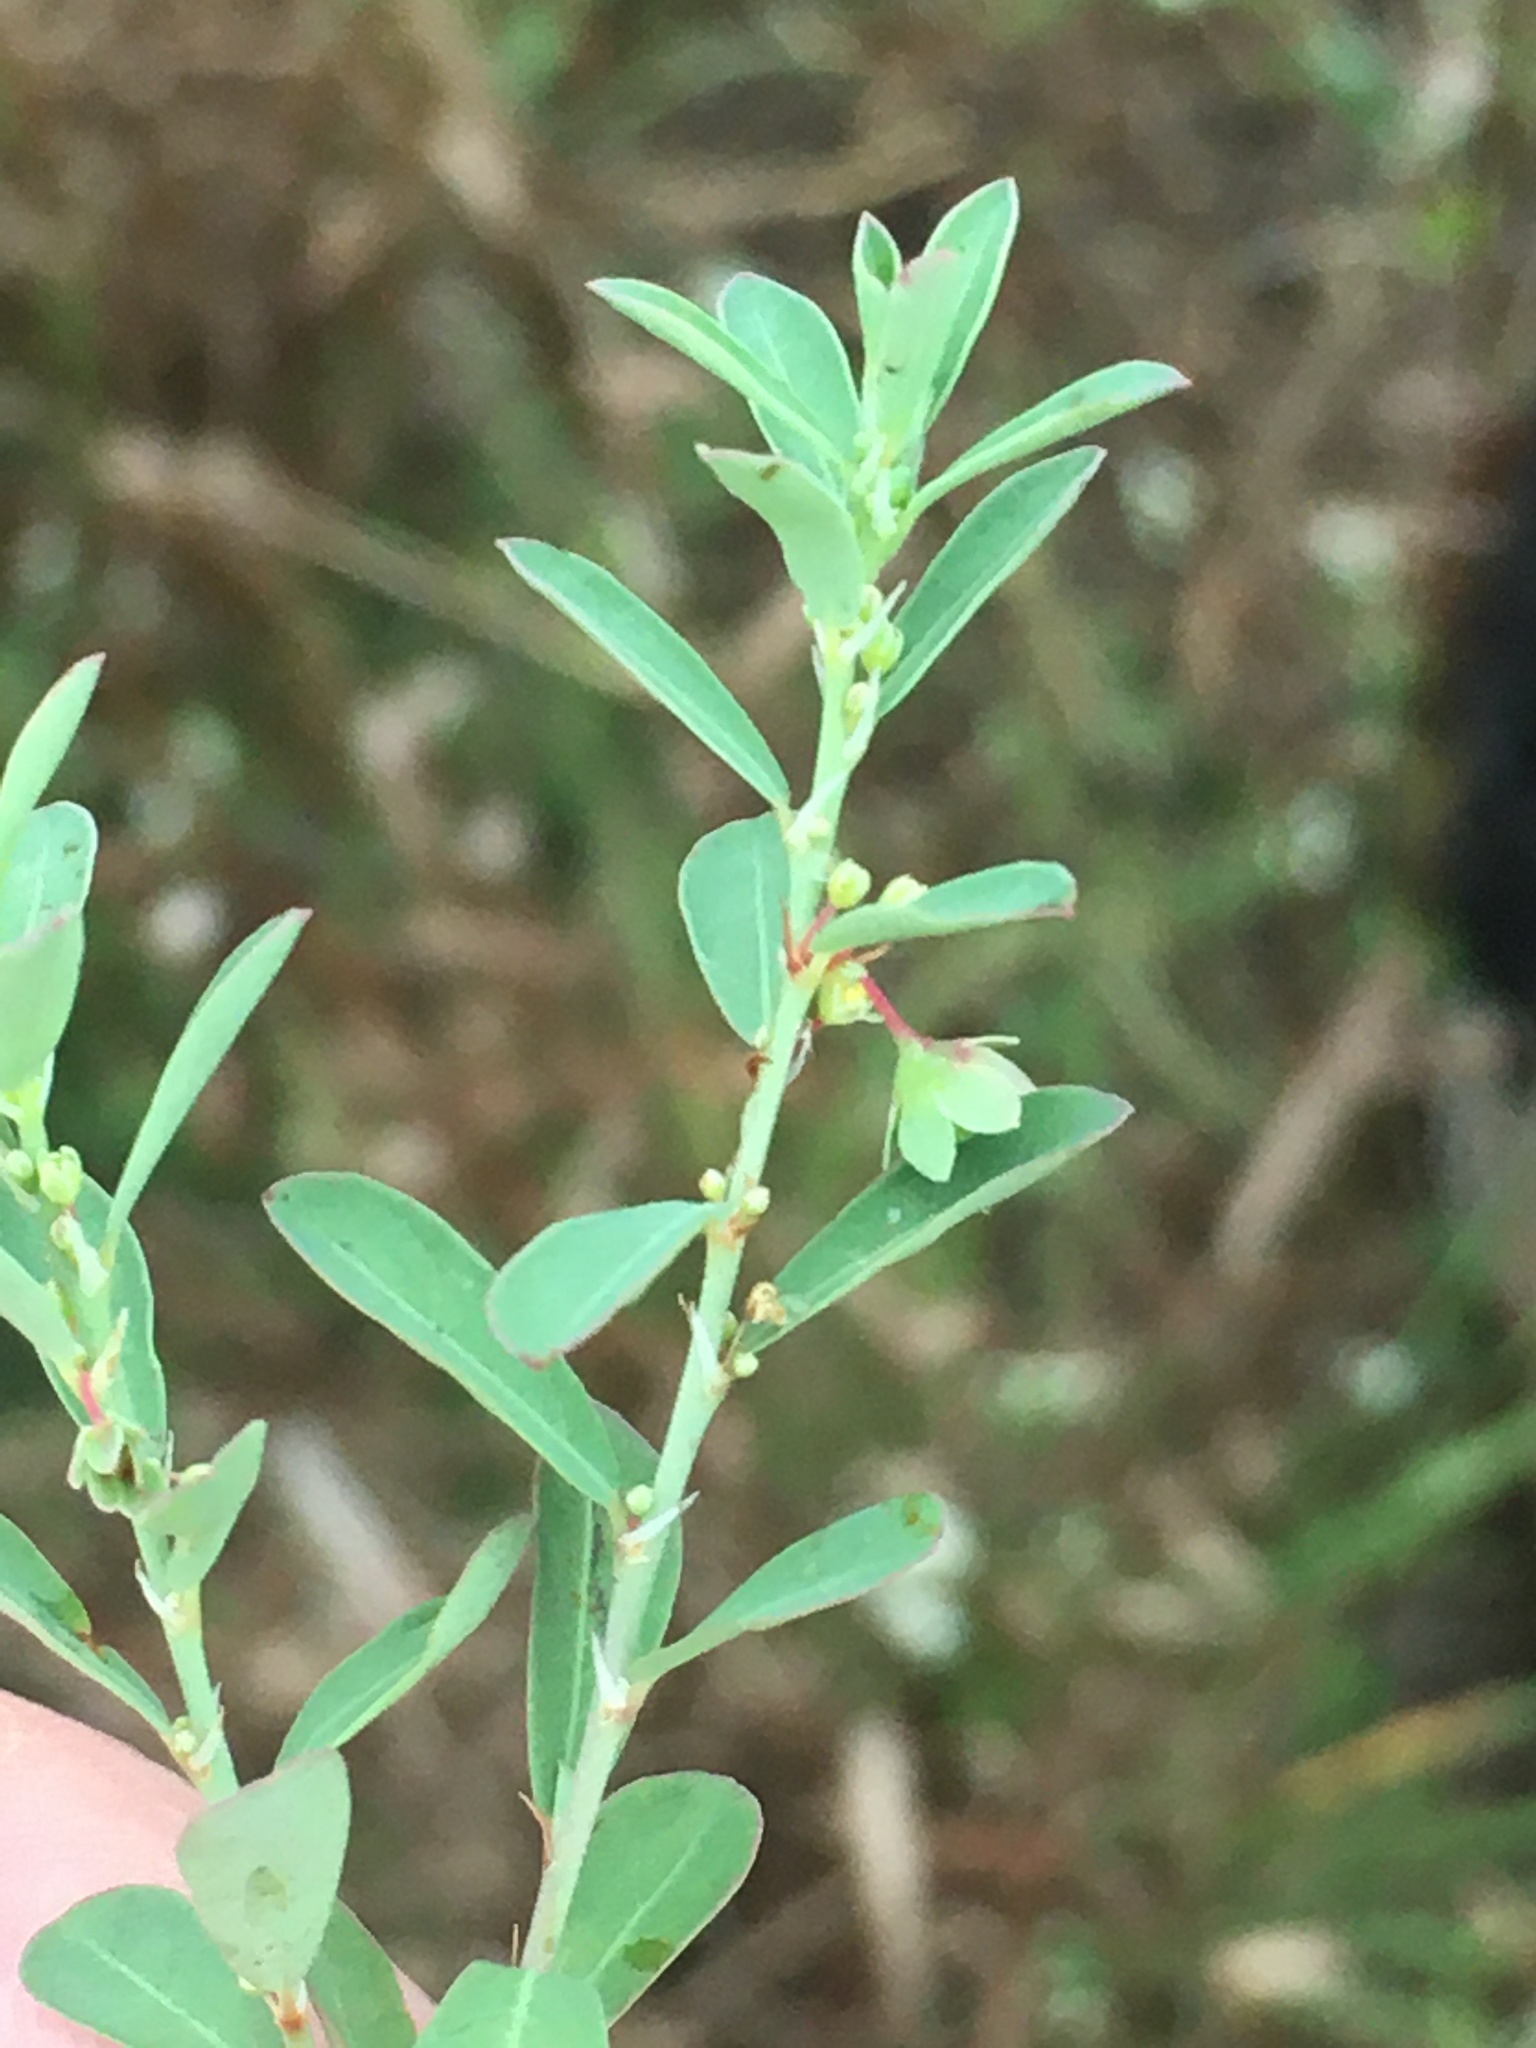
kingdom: Plantae
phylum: Tracheophyta
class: Magnoliopsida
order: Malpighiales
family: Phyllanthaceae
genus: Phyllanthus
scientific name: Phyllanthus polygonoides
